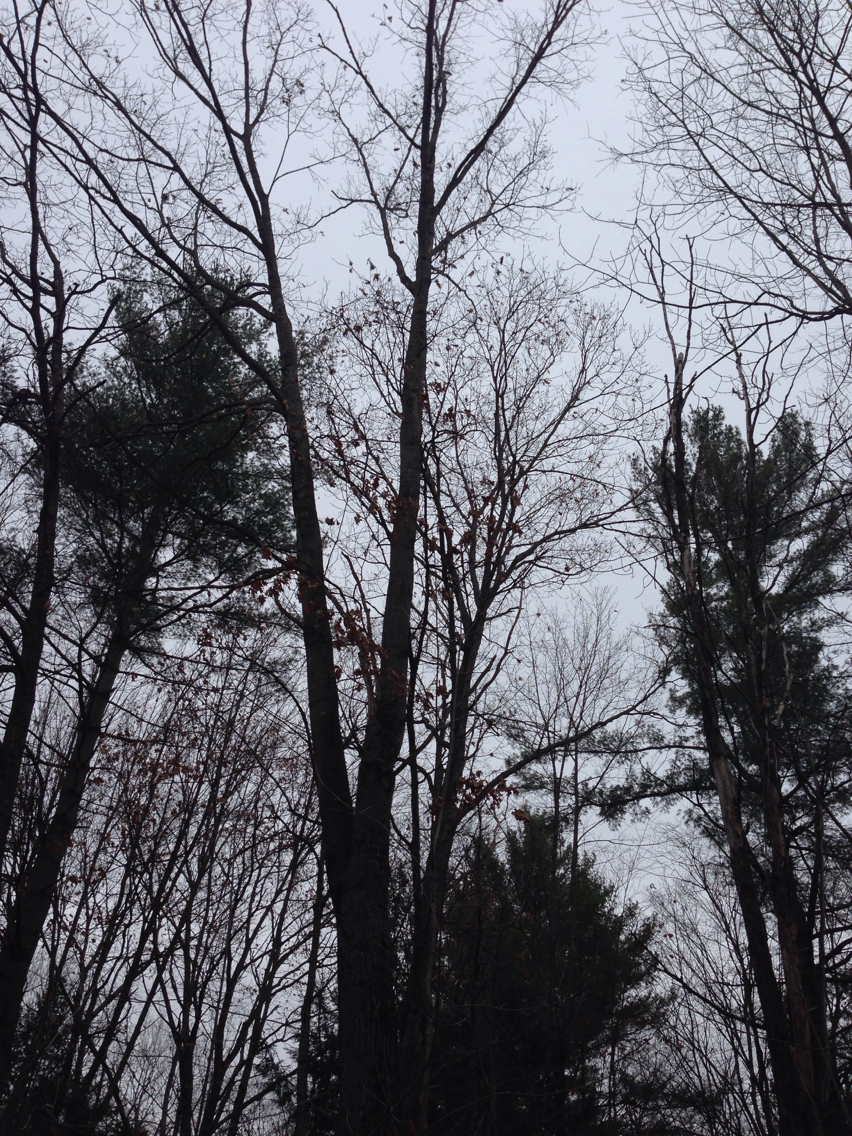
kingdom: Plantae
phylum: Tracheophyta
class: Magnoliopsida
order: Fagales
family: Fagaceae
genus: Quercus
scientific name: Quercus rubra
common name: Red oak
